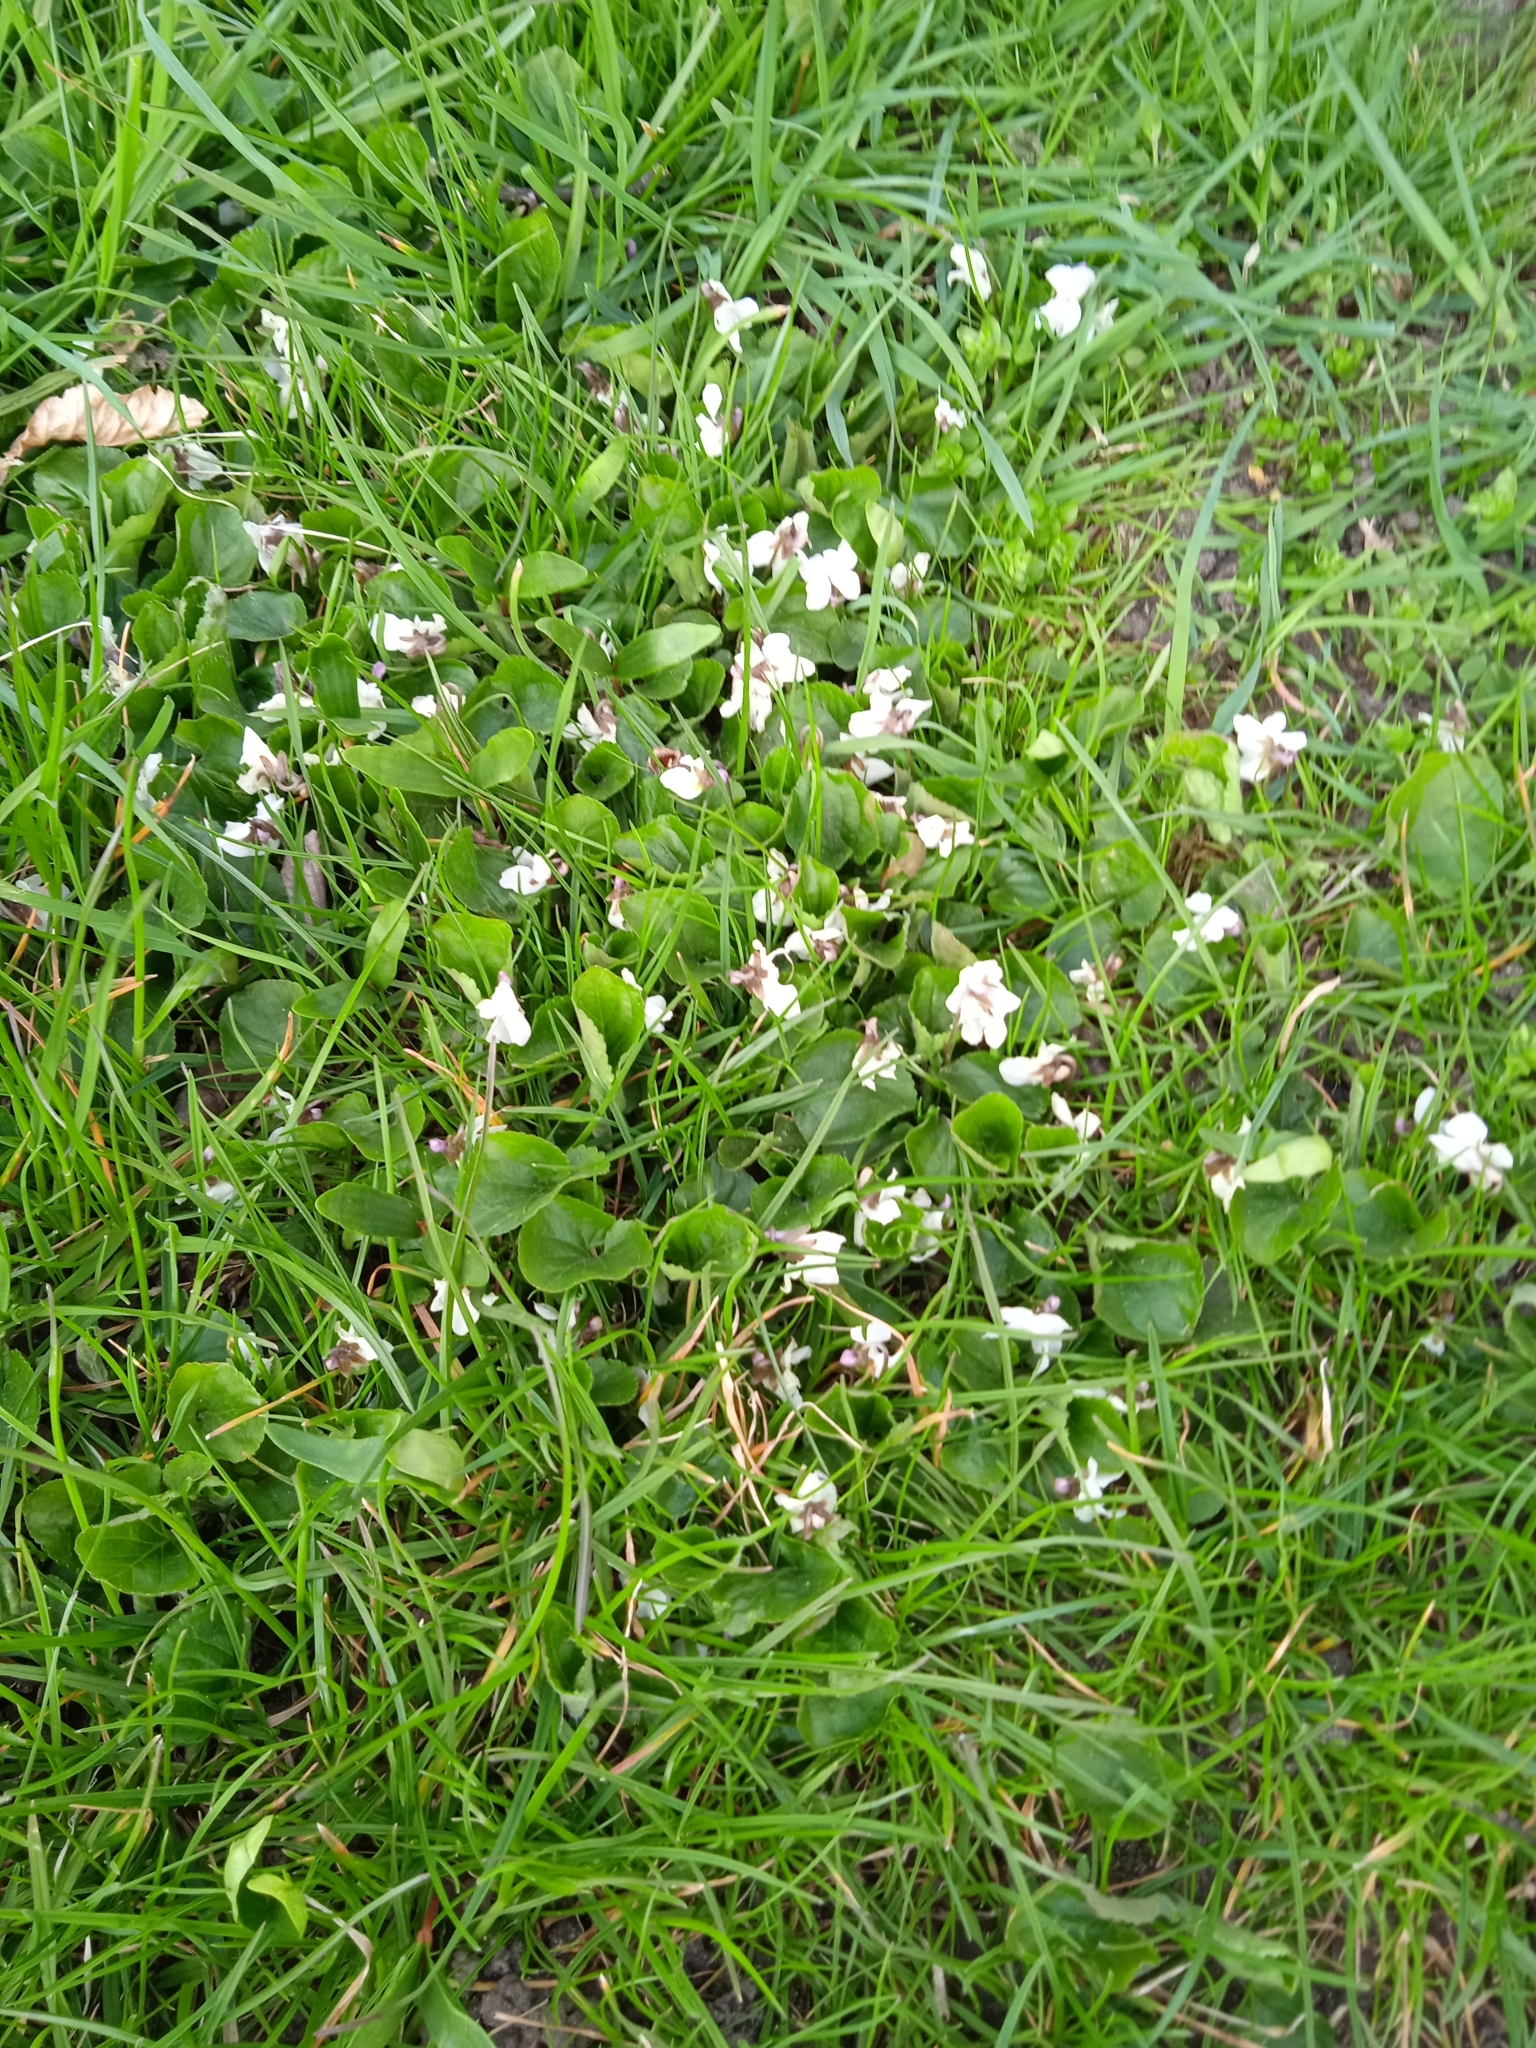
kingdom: Plantae
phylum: Tracheophyta
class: Magnoliopsida
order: Malpighiales
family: Violaceae
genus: Viola
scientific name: Viola odorata
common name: Sweet violet
